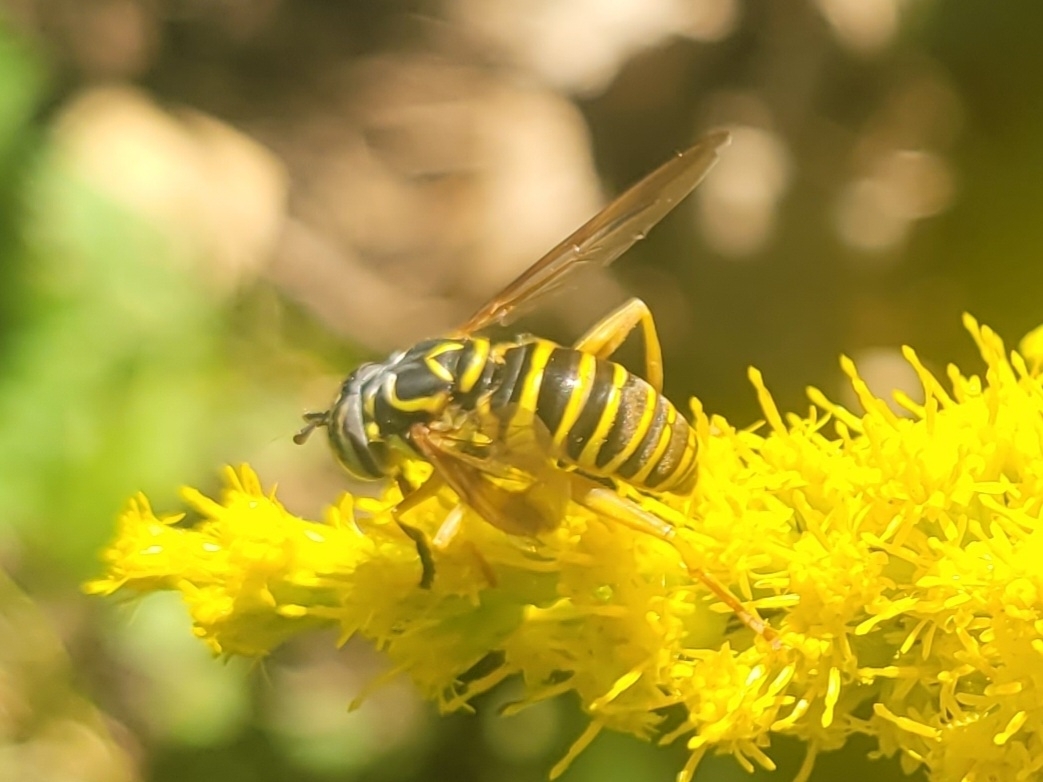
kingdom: Animalia
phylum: Arthropoda
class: Insecta
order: Diptera
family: Syrphidae
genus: Spilomyia
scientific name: Spilomyia longicornis
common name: Eastern hornet fly
